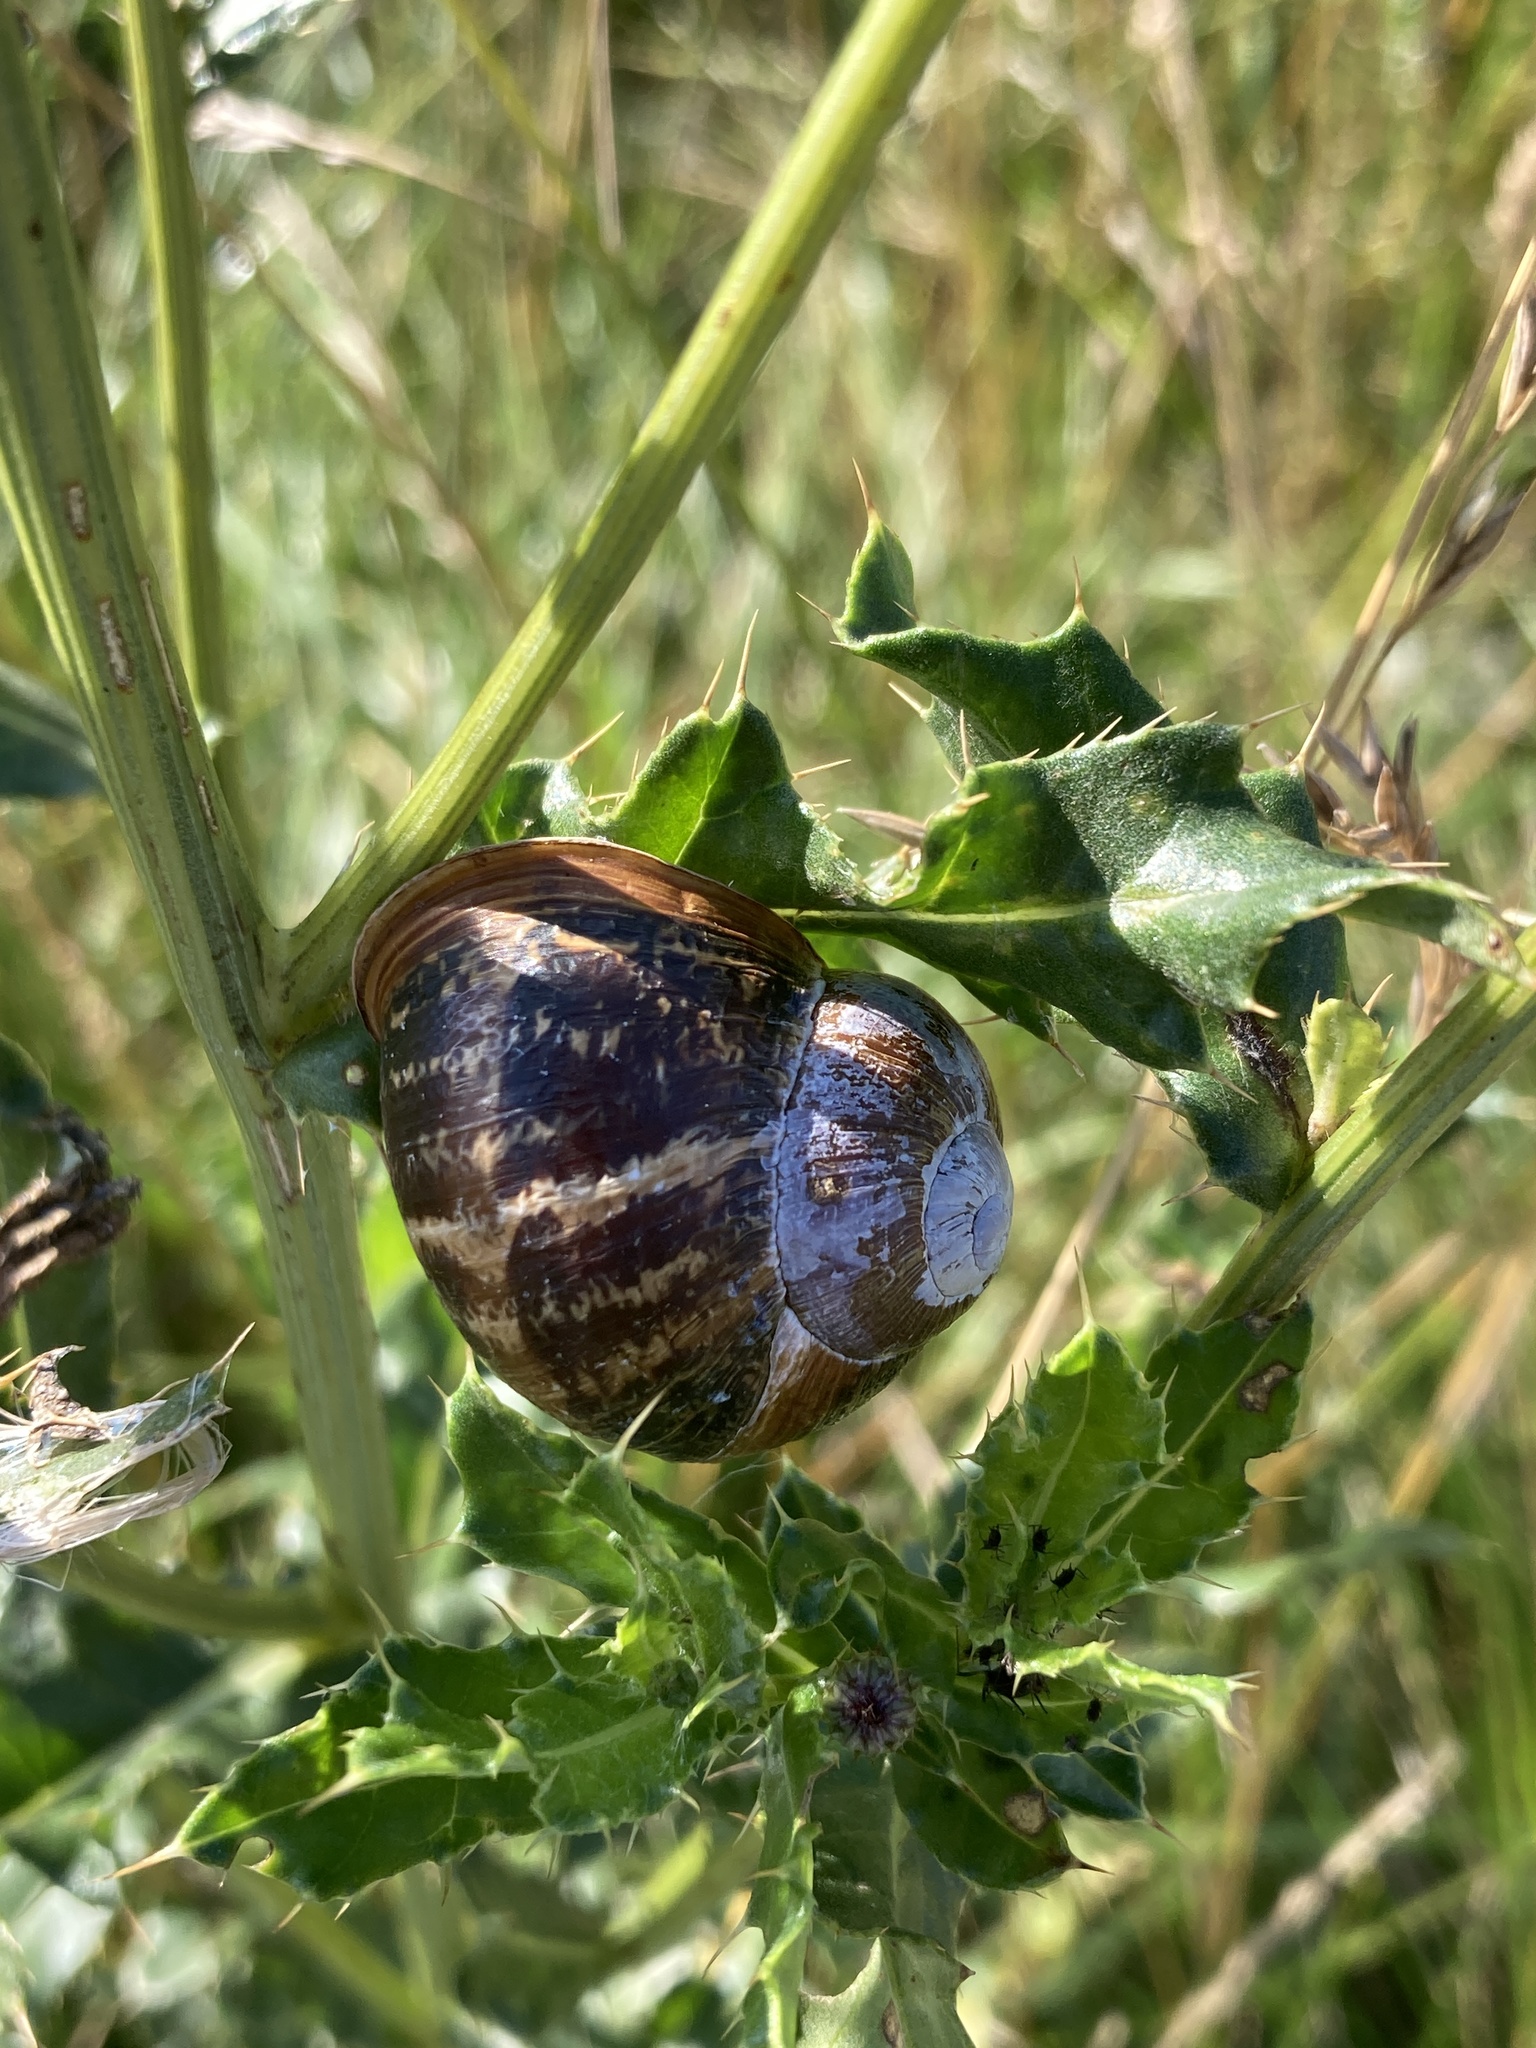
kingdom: Animalia
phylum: Mollusca
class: Gastropoda
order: Stylommatophora
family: Helicidae
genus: Cornu
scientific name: Cornu aspersum
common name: Brown garden snail
